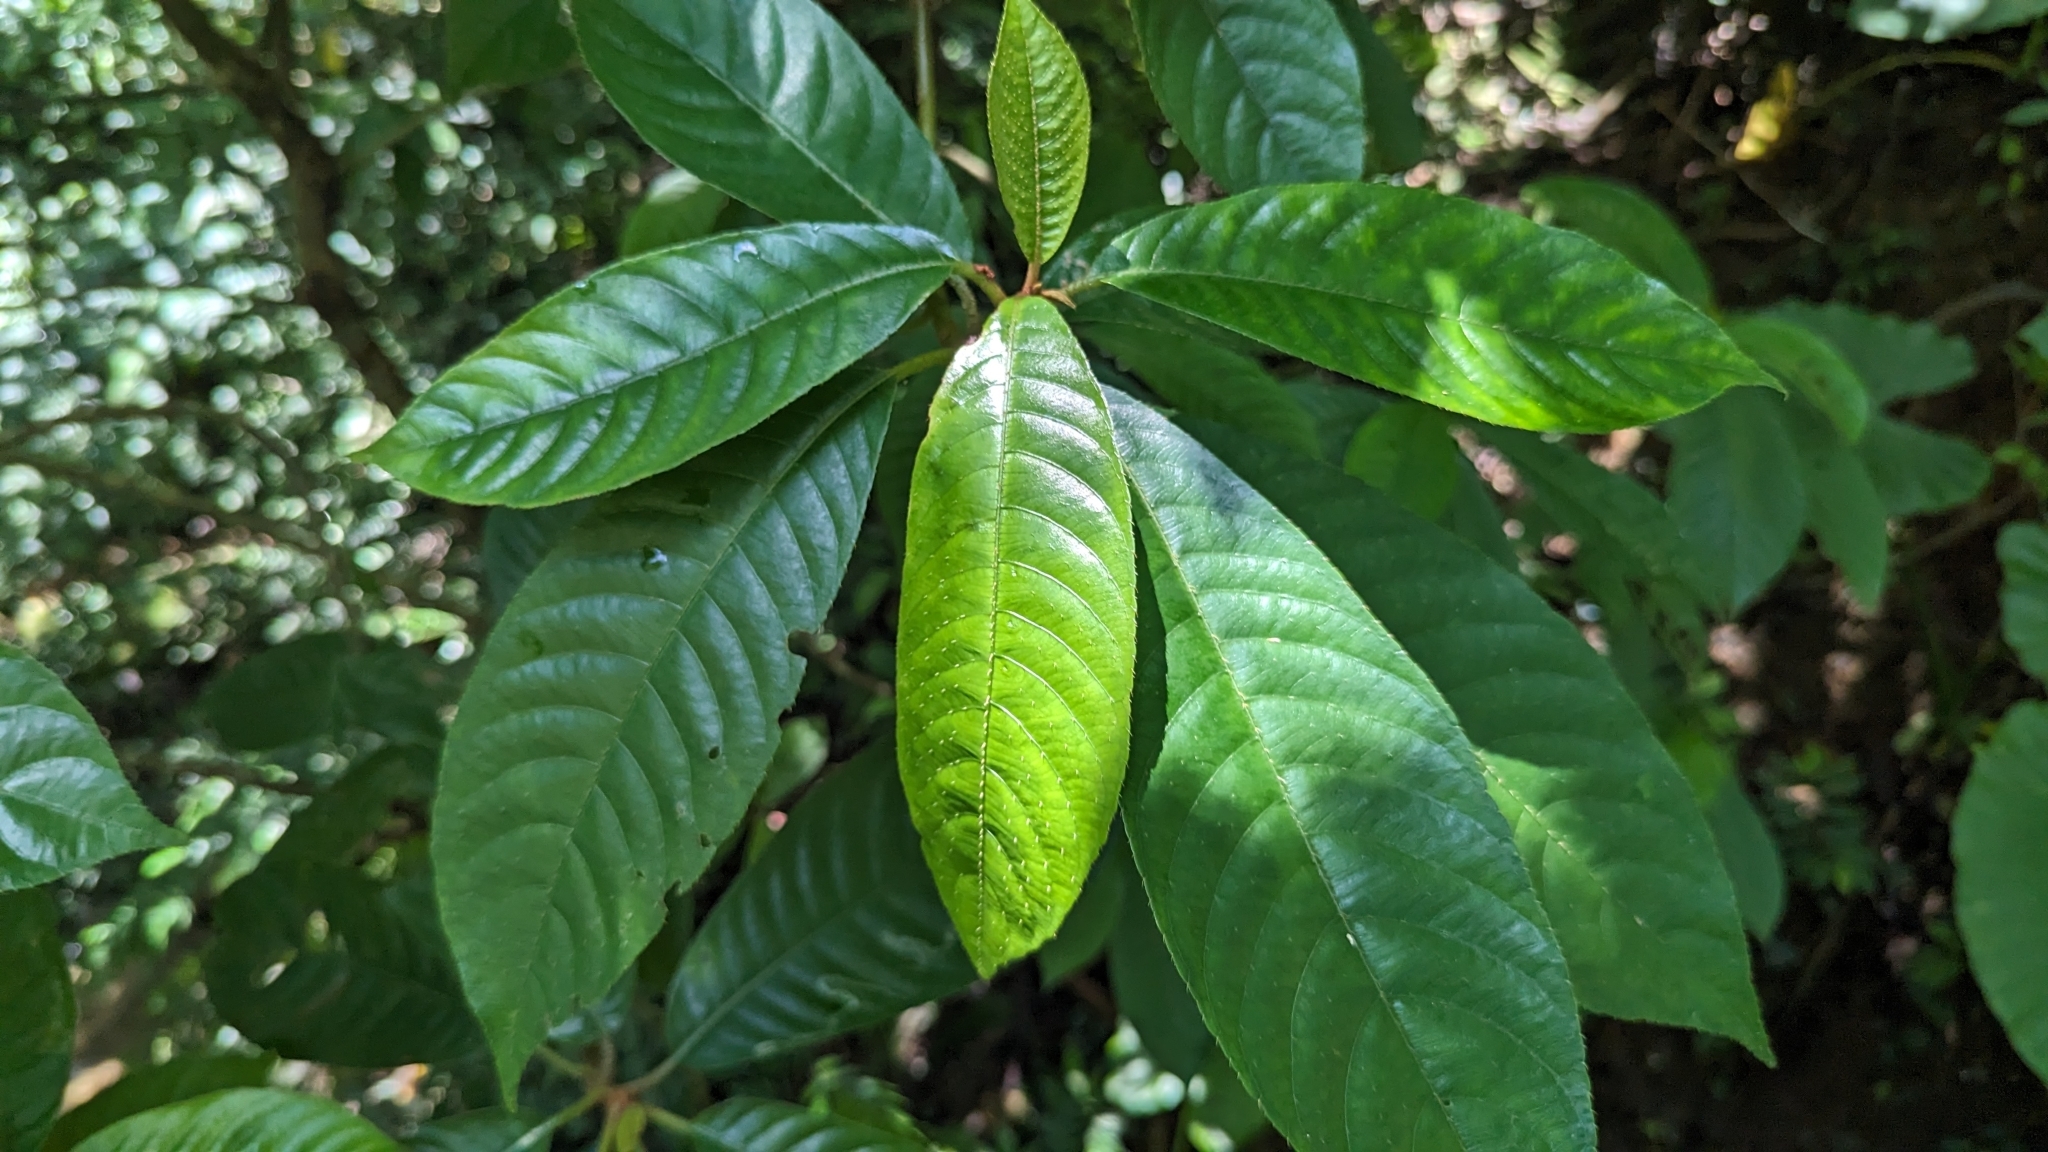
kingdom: Plantae
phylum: Tracheophyta
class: Magnoliopsida
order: Ericales
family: Actinidiaceae
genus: Saurauia
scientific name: Saurauia tristyla
